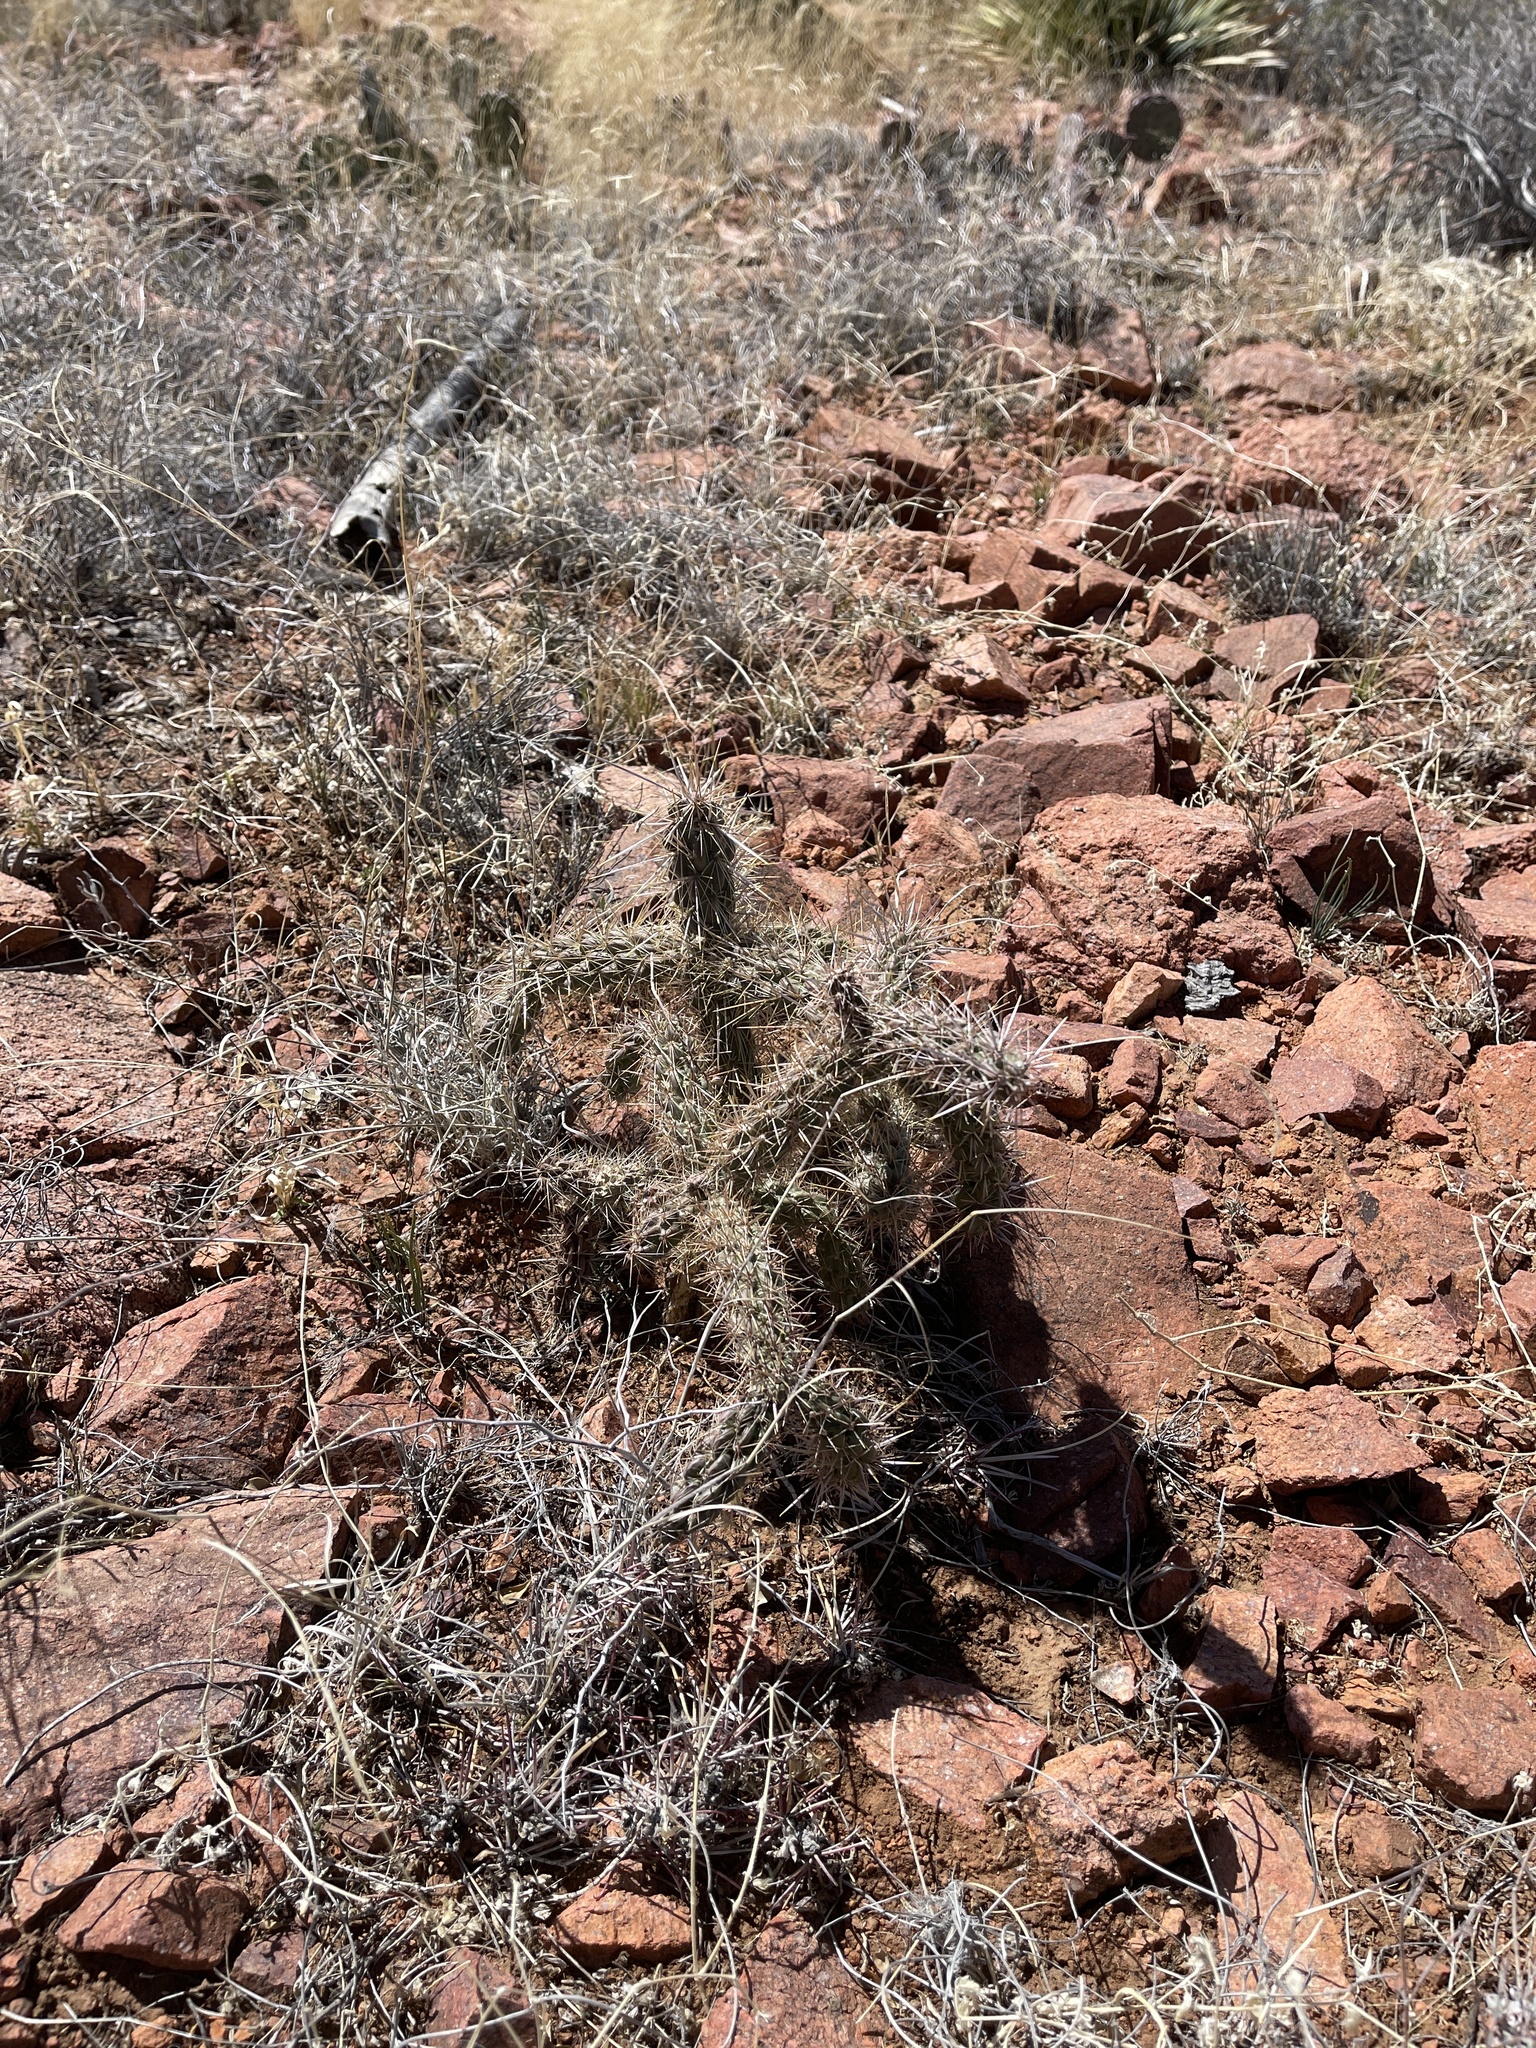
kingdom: Plantae
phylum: Tracheophyta
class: Magnoliopsida
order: Caryophyllales
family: Cactaceae
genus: Cylindropuntia
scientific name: Cylindropuntia imbricata
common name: Candelabrum cactus
